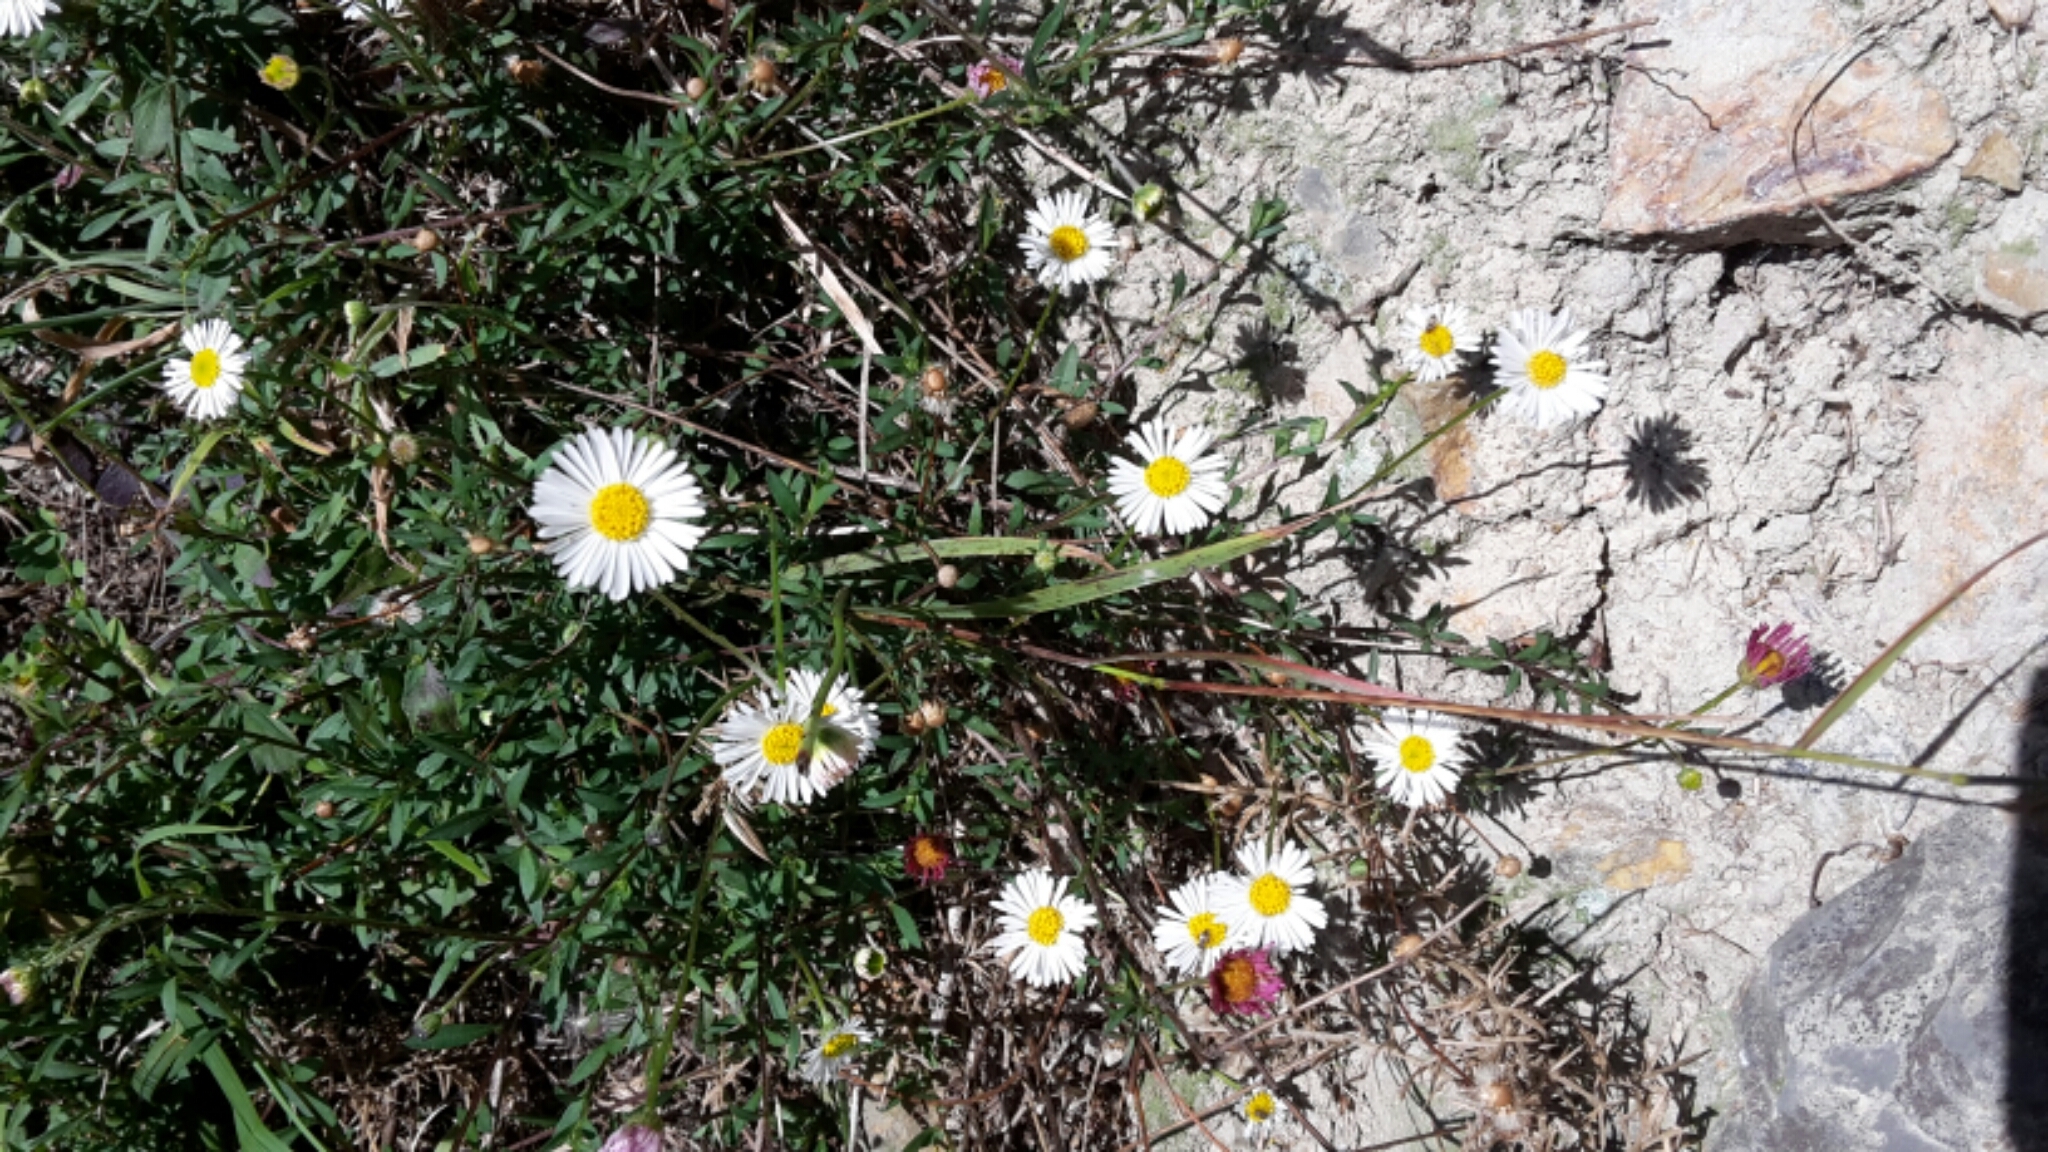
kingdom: Plantae
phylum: Tracheophyta
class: Magnoliopsida
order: Asterales
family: Asteraceae
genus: Erigeron
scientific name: Erigeron karvinskianus
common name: Mexican fleabane
